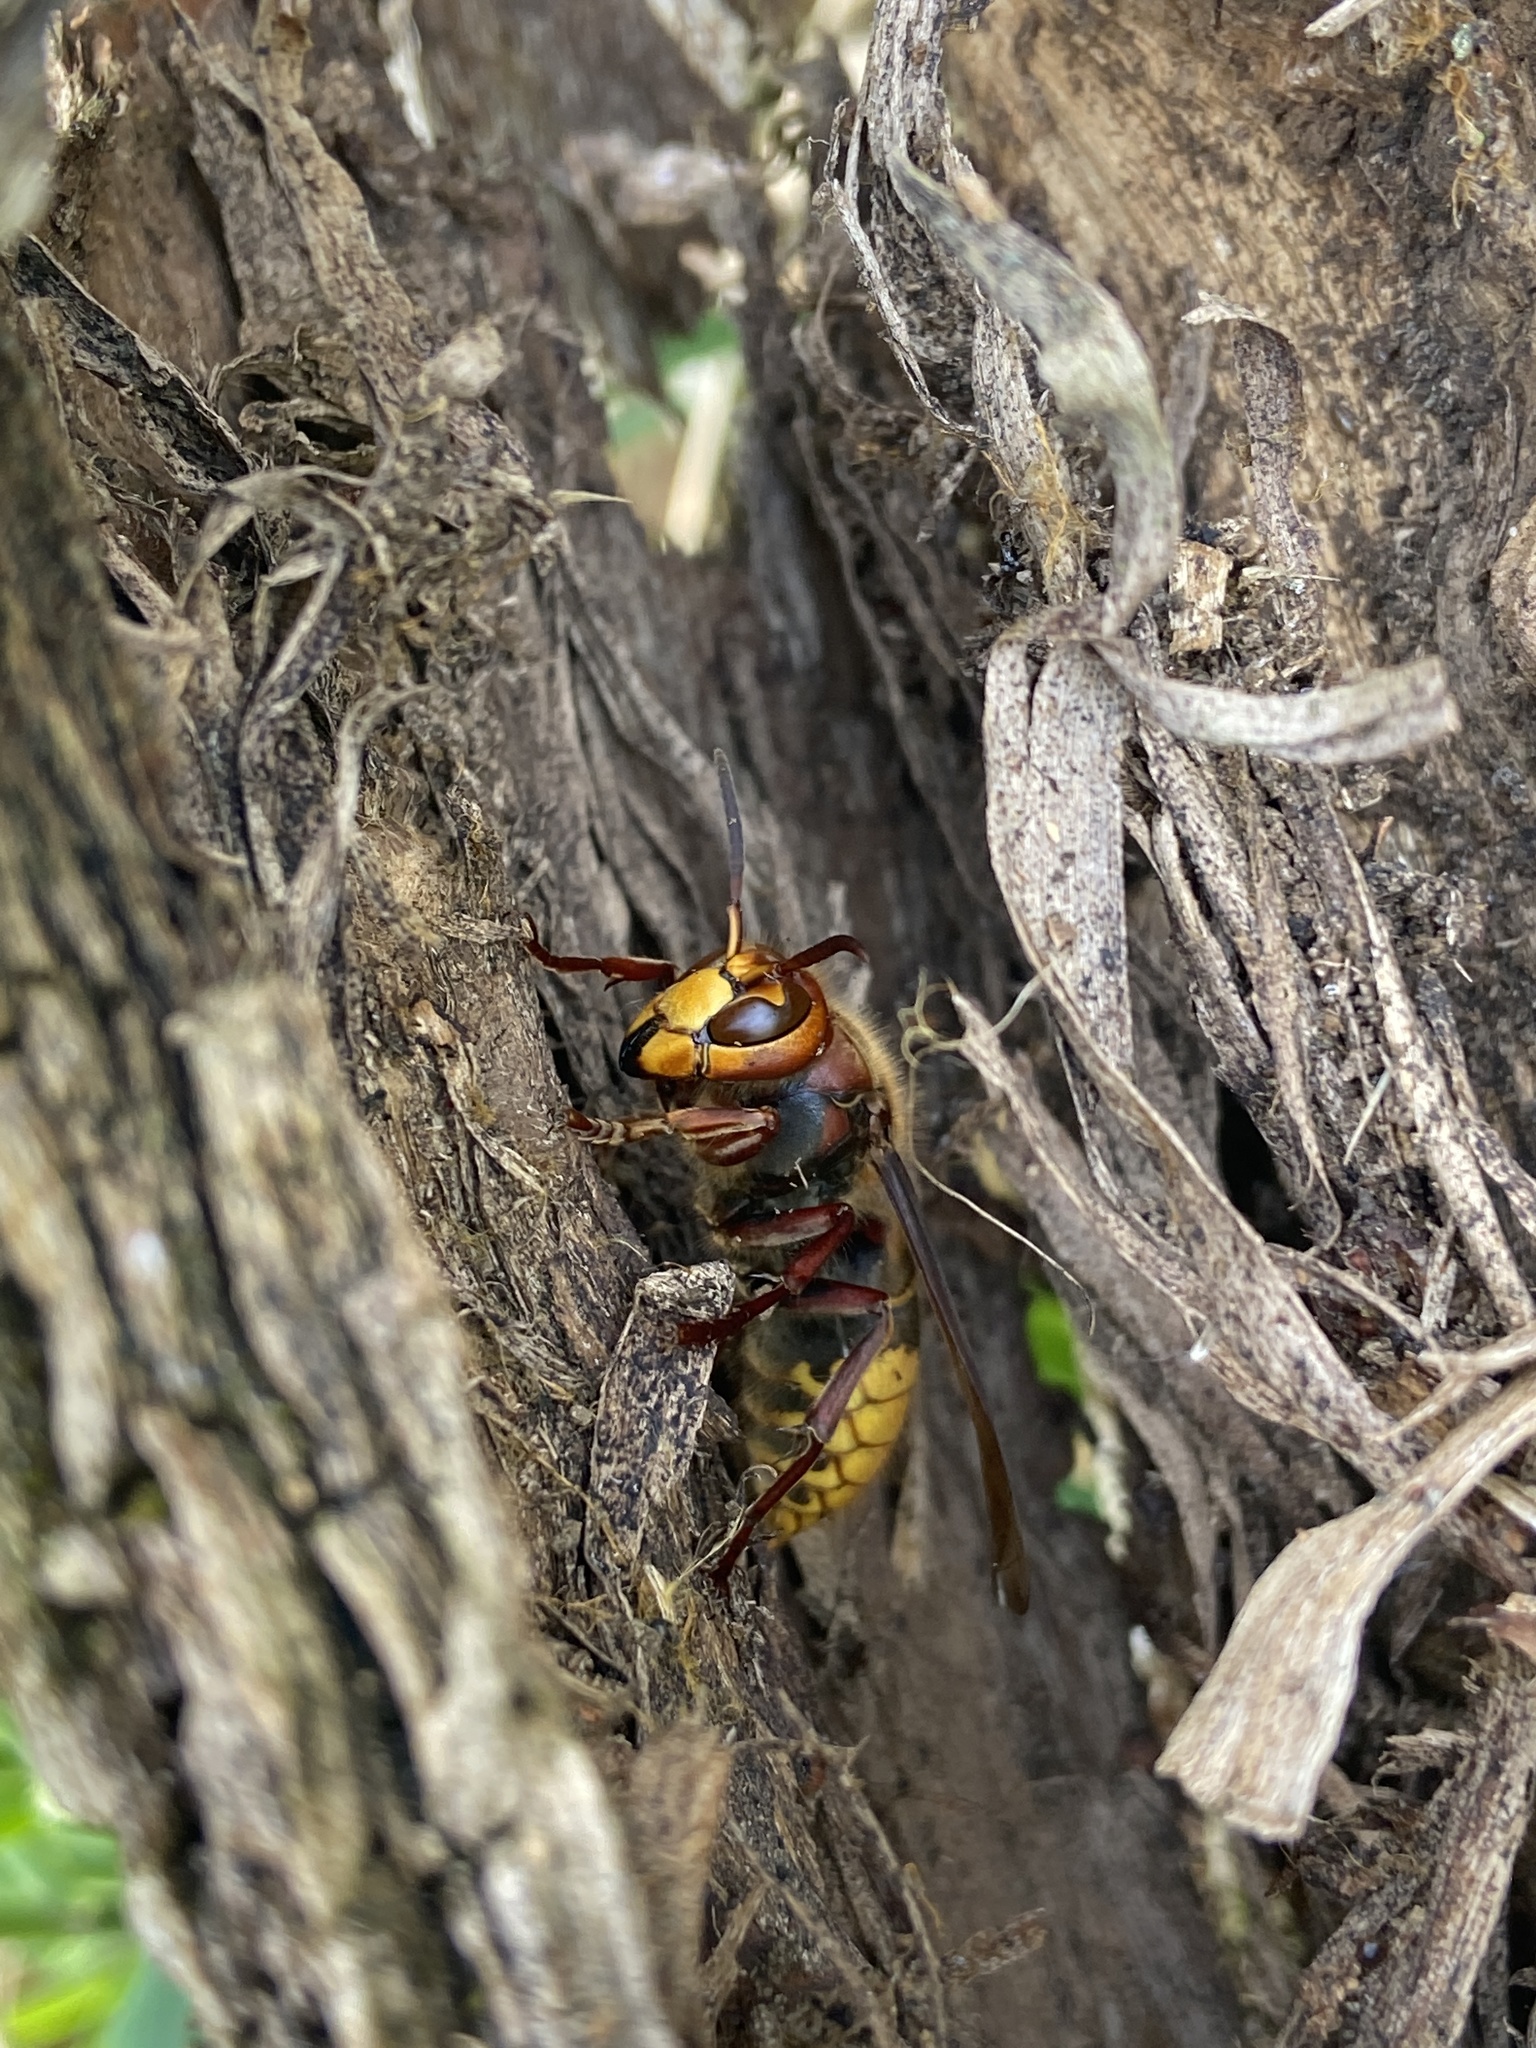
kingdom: Animalia
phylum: Arthropoda
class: Insecta
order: Hymenoptera
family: Vespidae
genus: Vespa
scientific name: Vespa crabro
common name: Hornet
